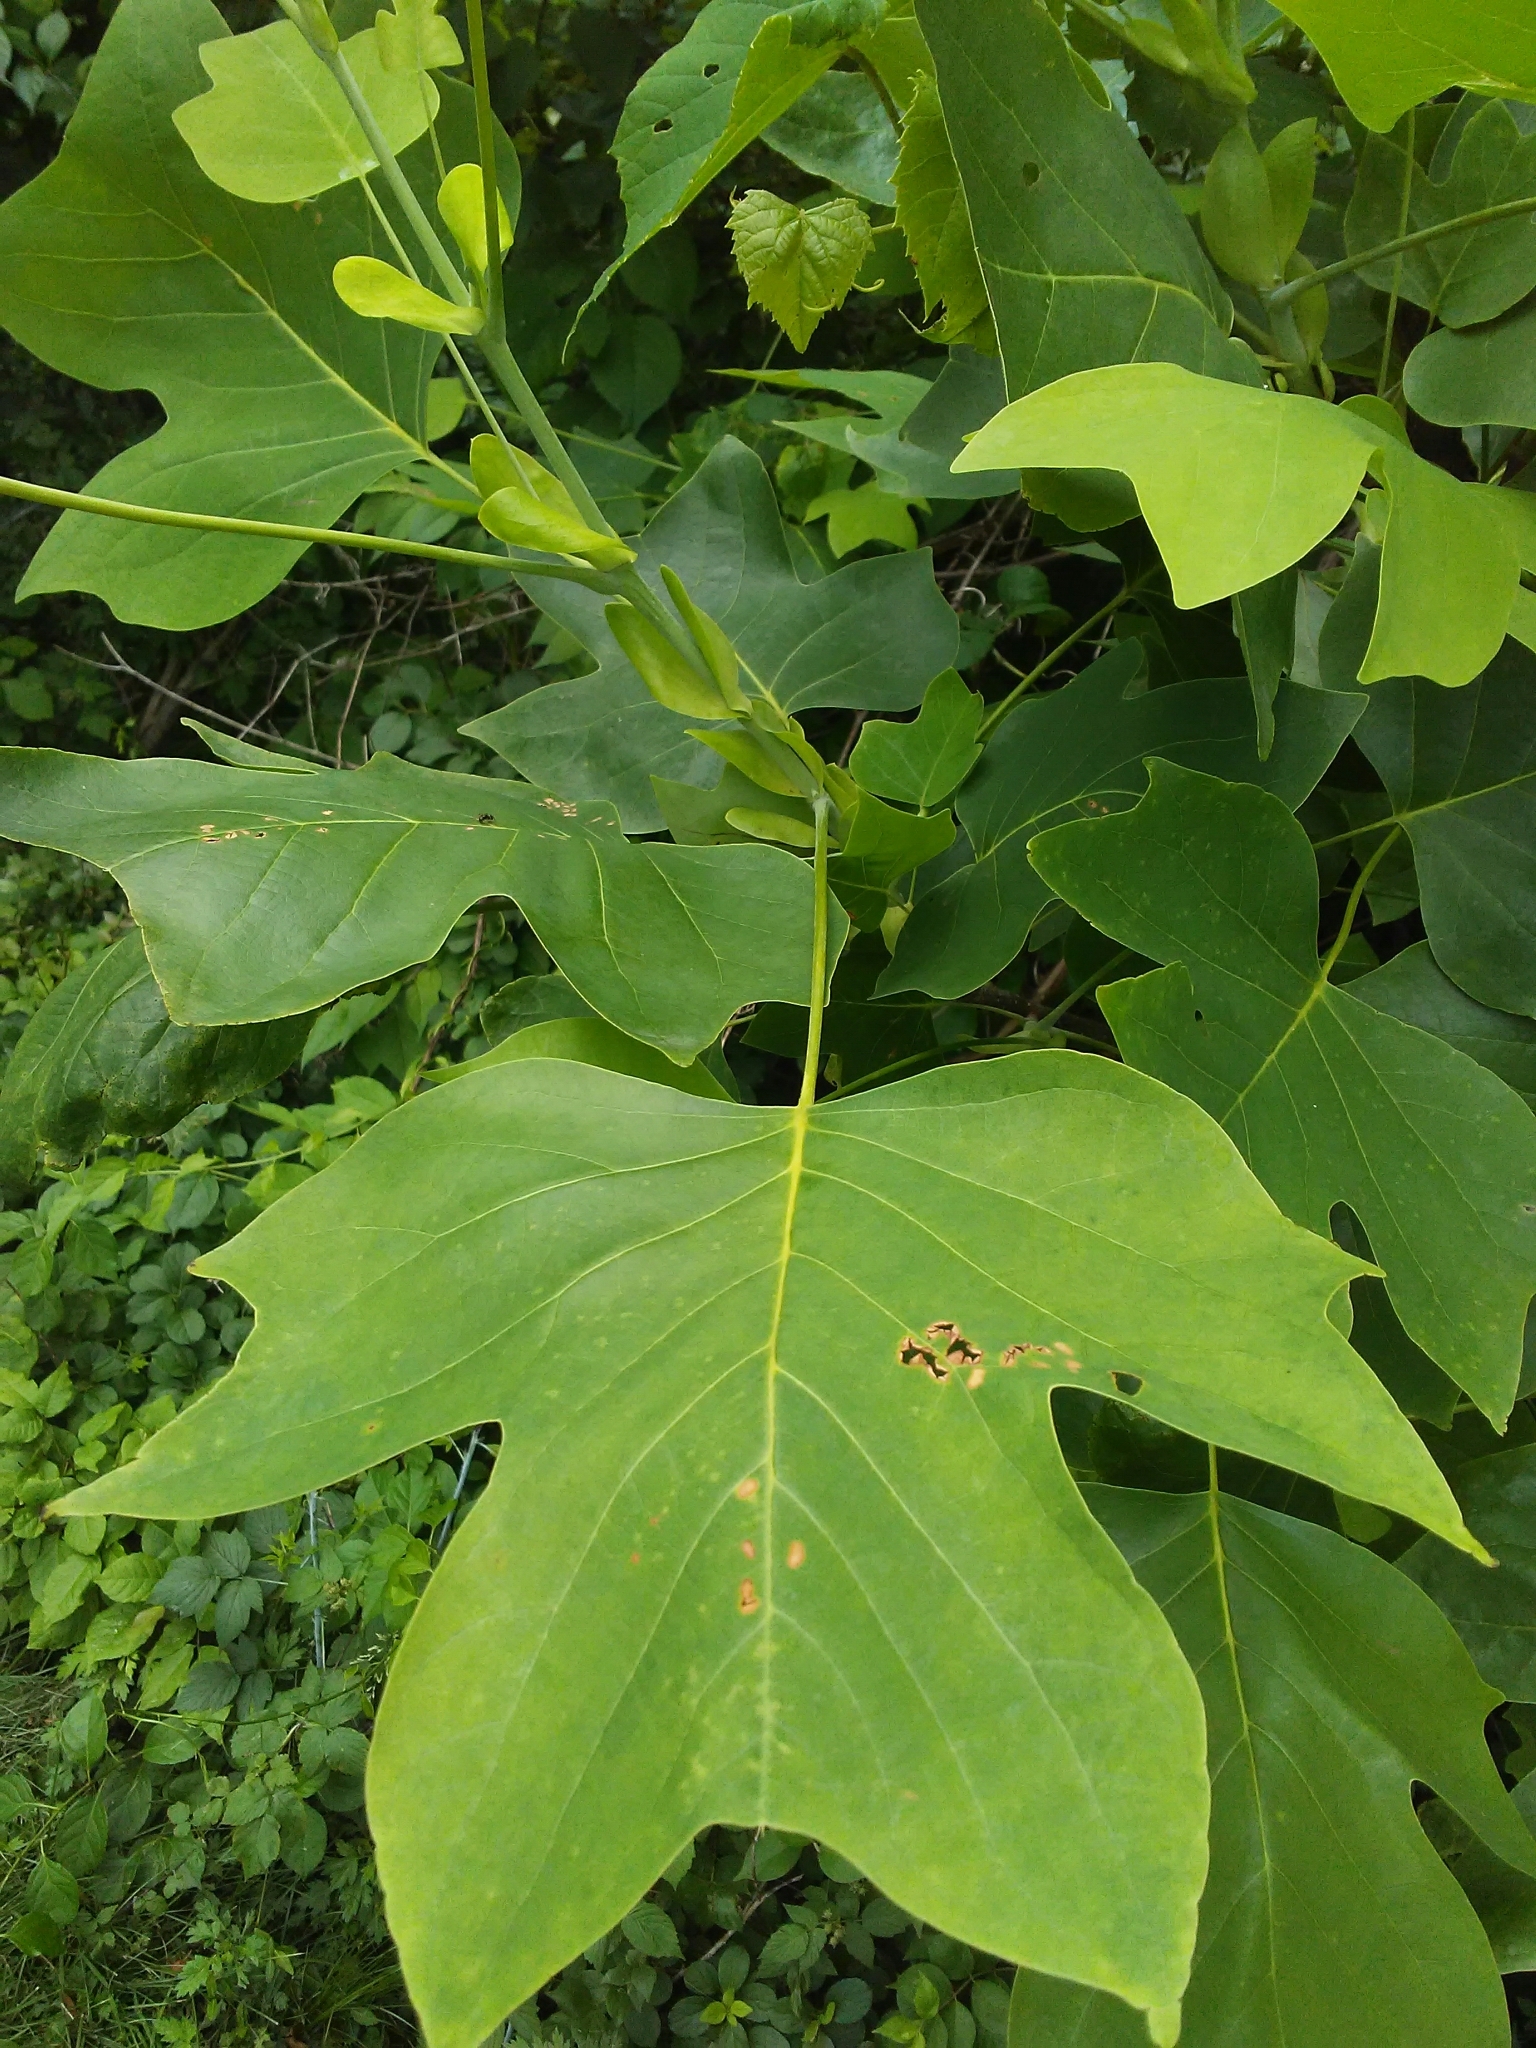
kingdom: Plantae
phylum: Tracheophyta
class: Magnoliopsida
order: Magnoliales
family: Magnoliaceae
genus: Liriodendron
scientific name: Liriodendron tulipifera
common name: Tulip tree
